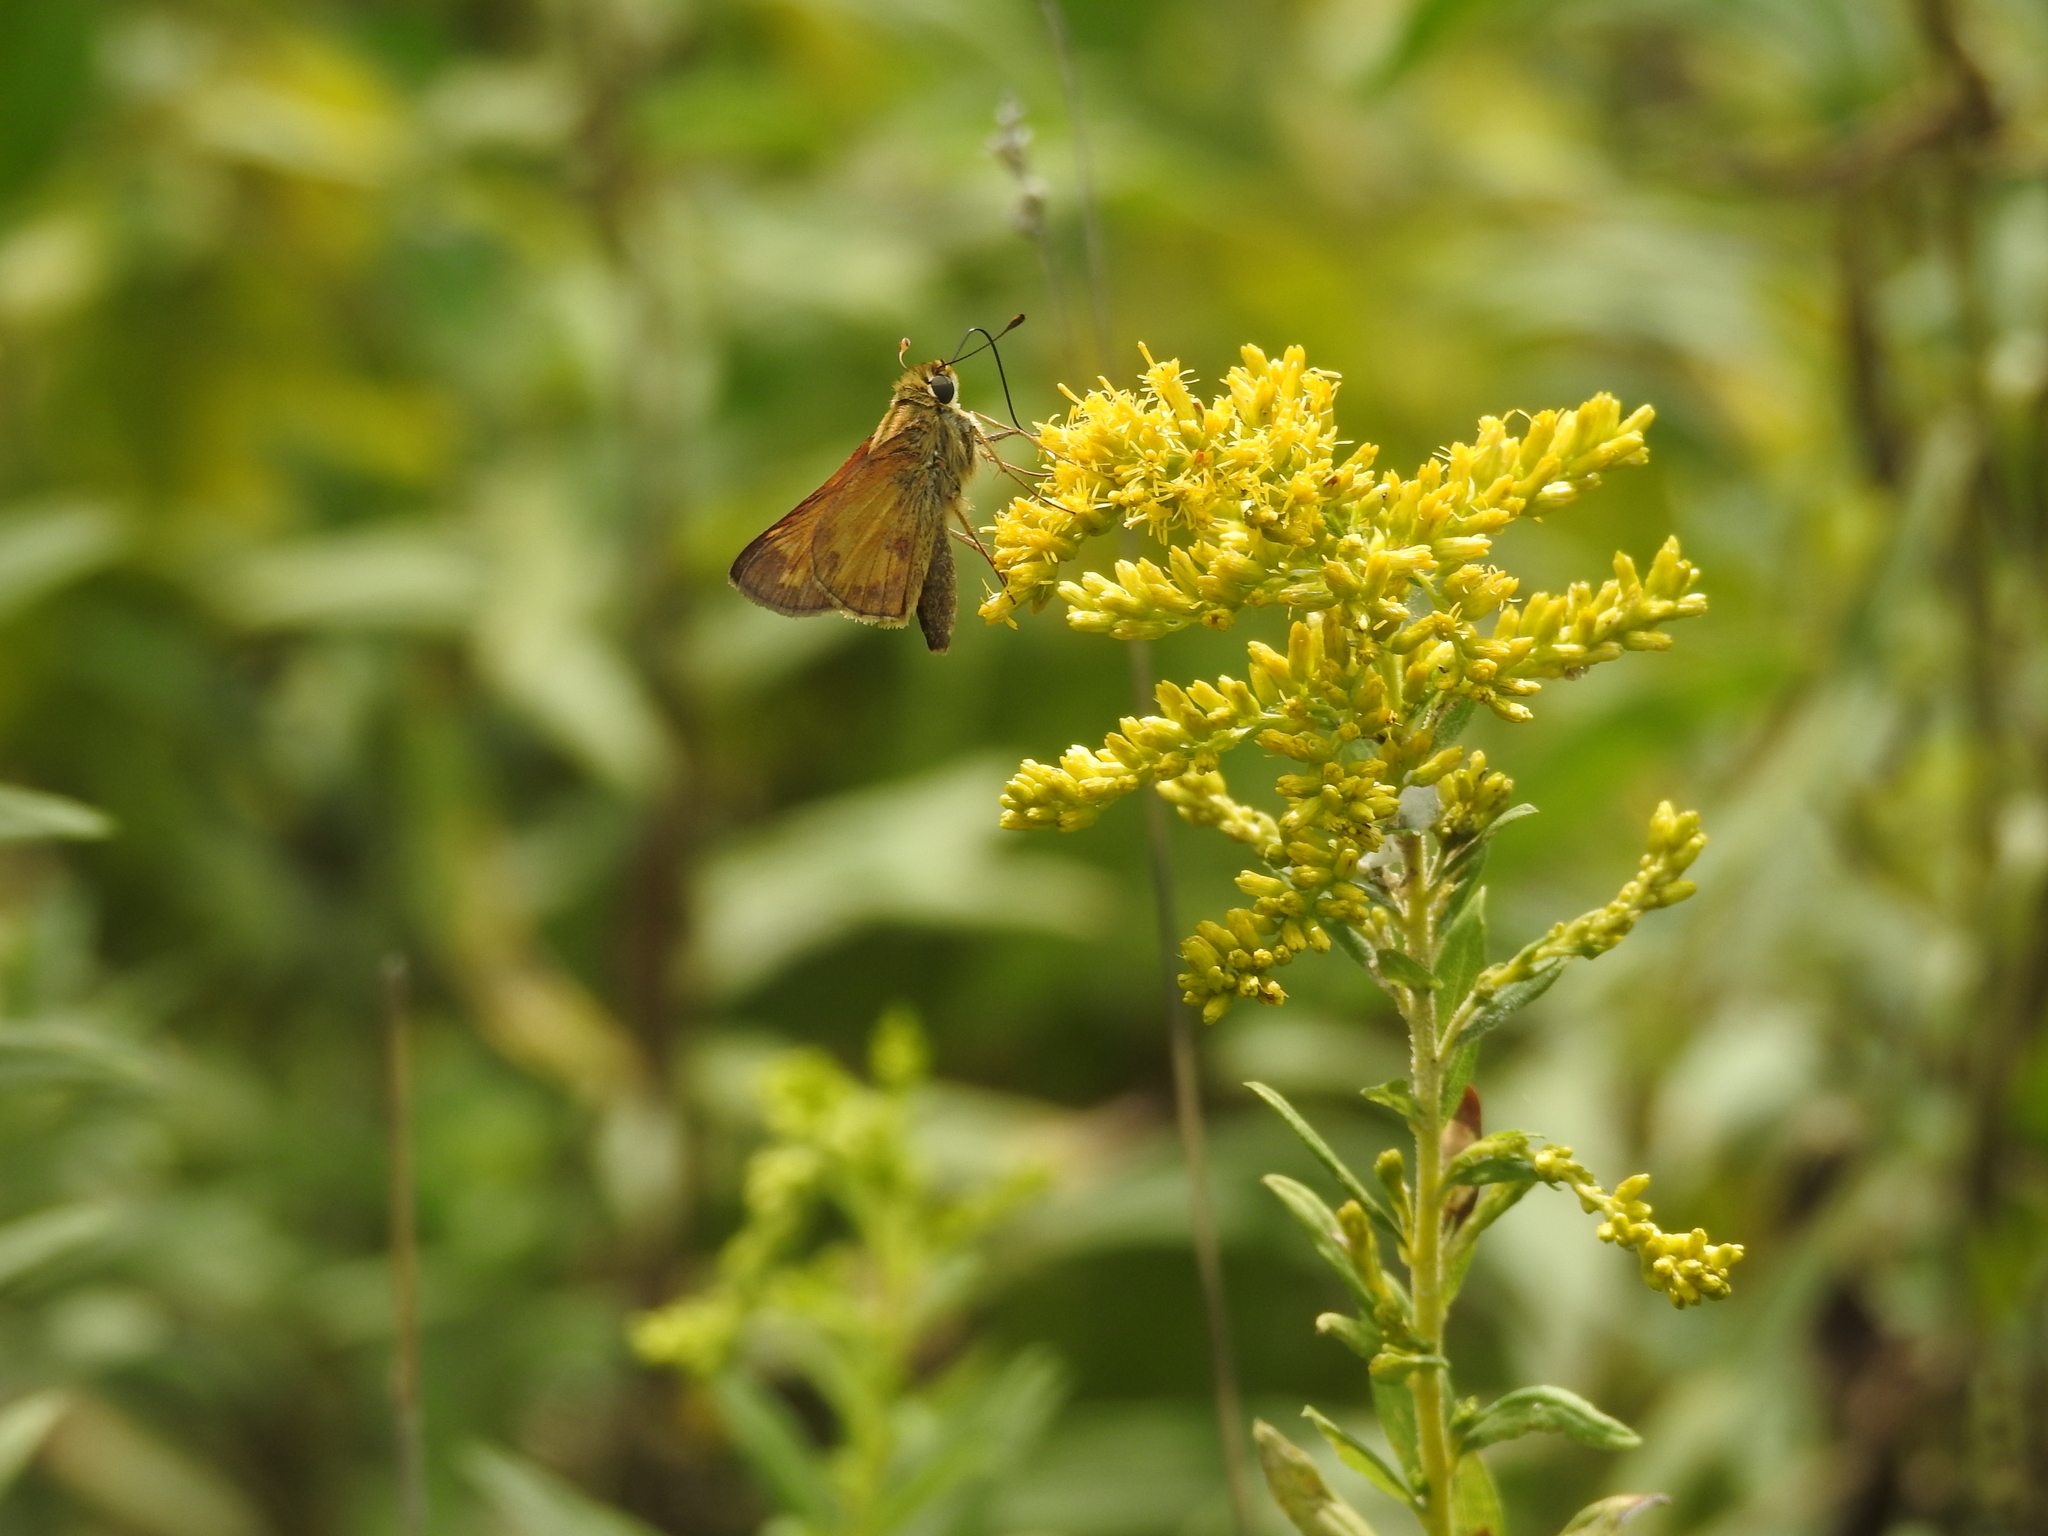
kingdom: Animalia
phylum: Arthropoda
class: Insecta
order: Lepidoptera
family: Hesperiidae
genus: Atalopedes
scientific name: Atalopedes
